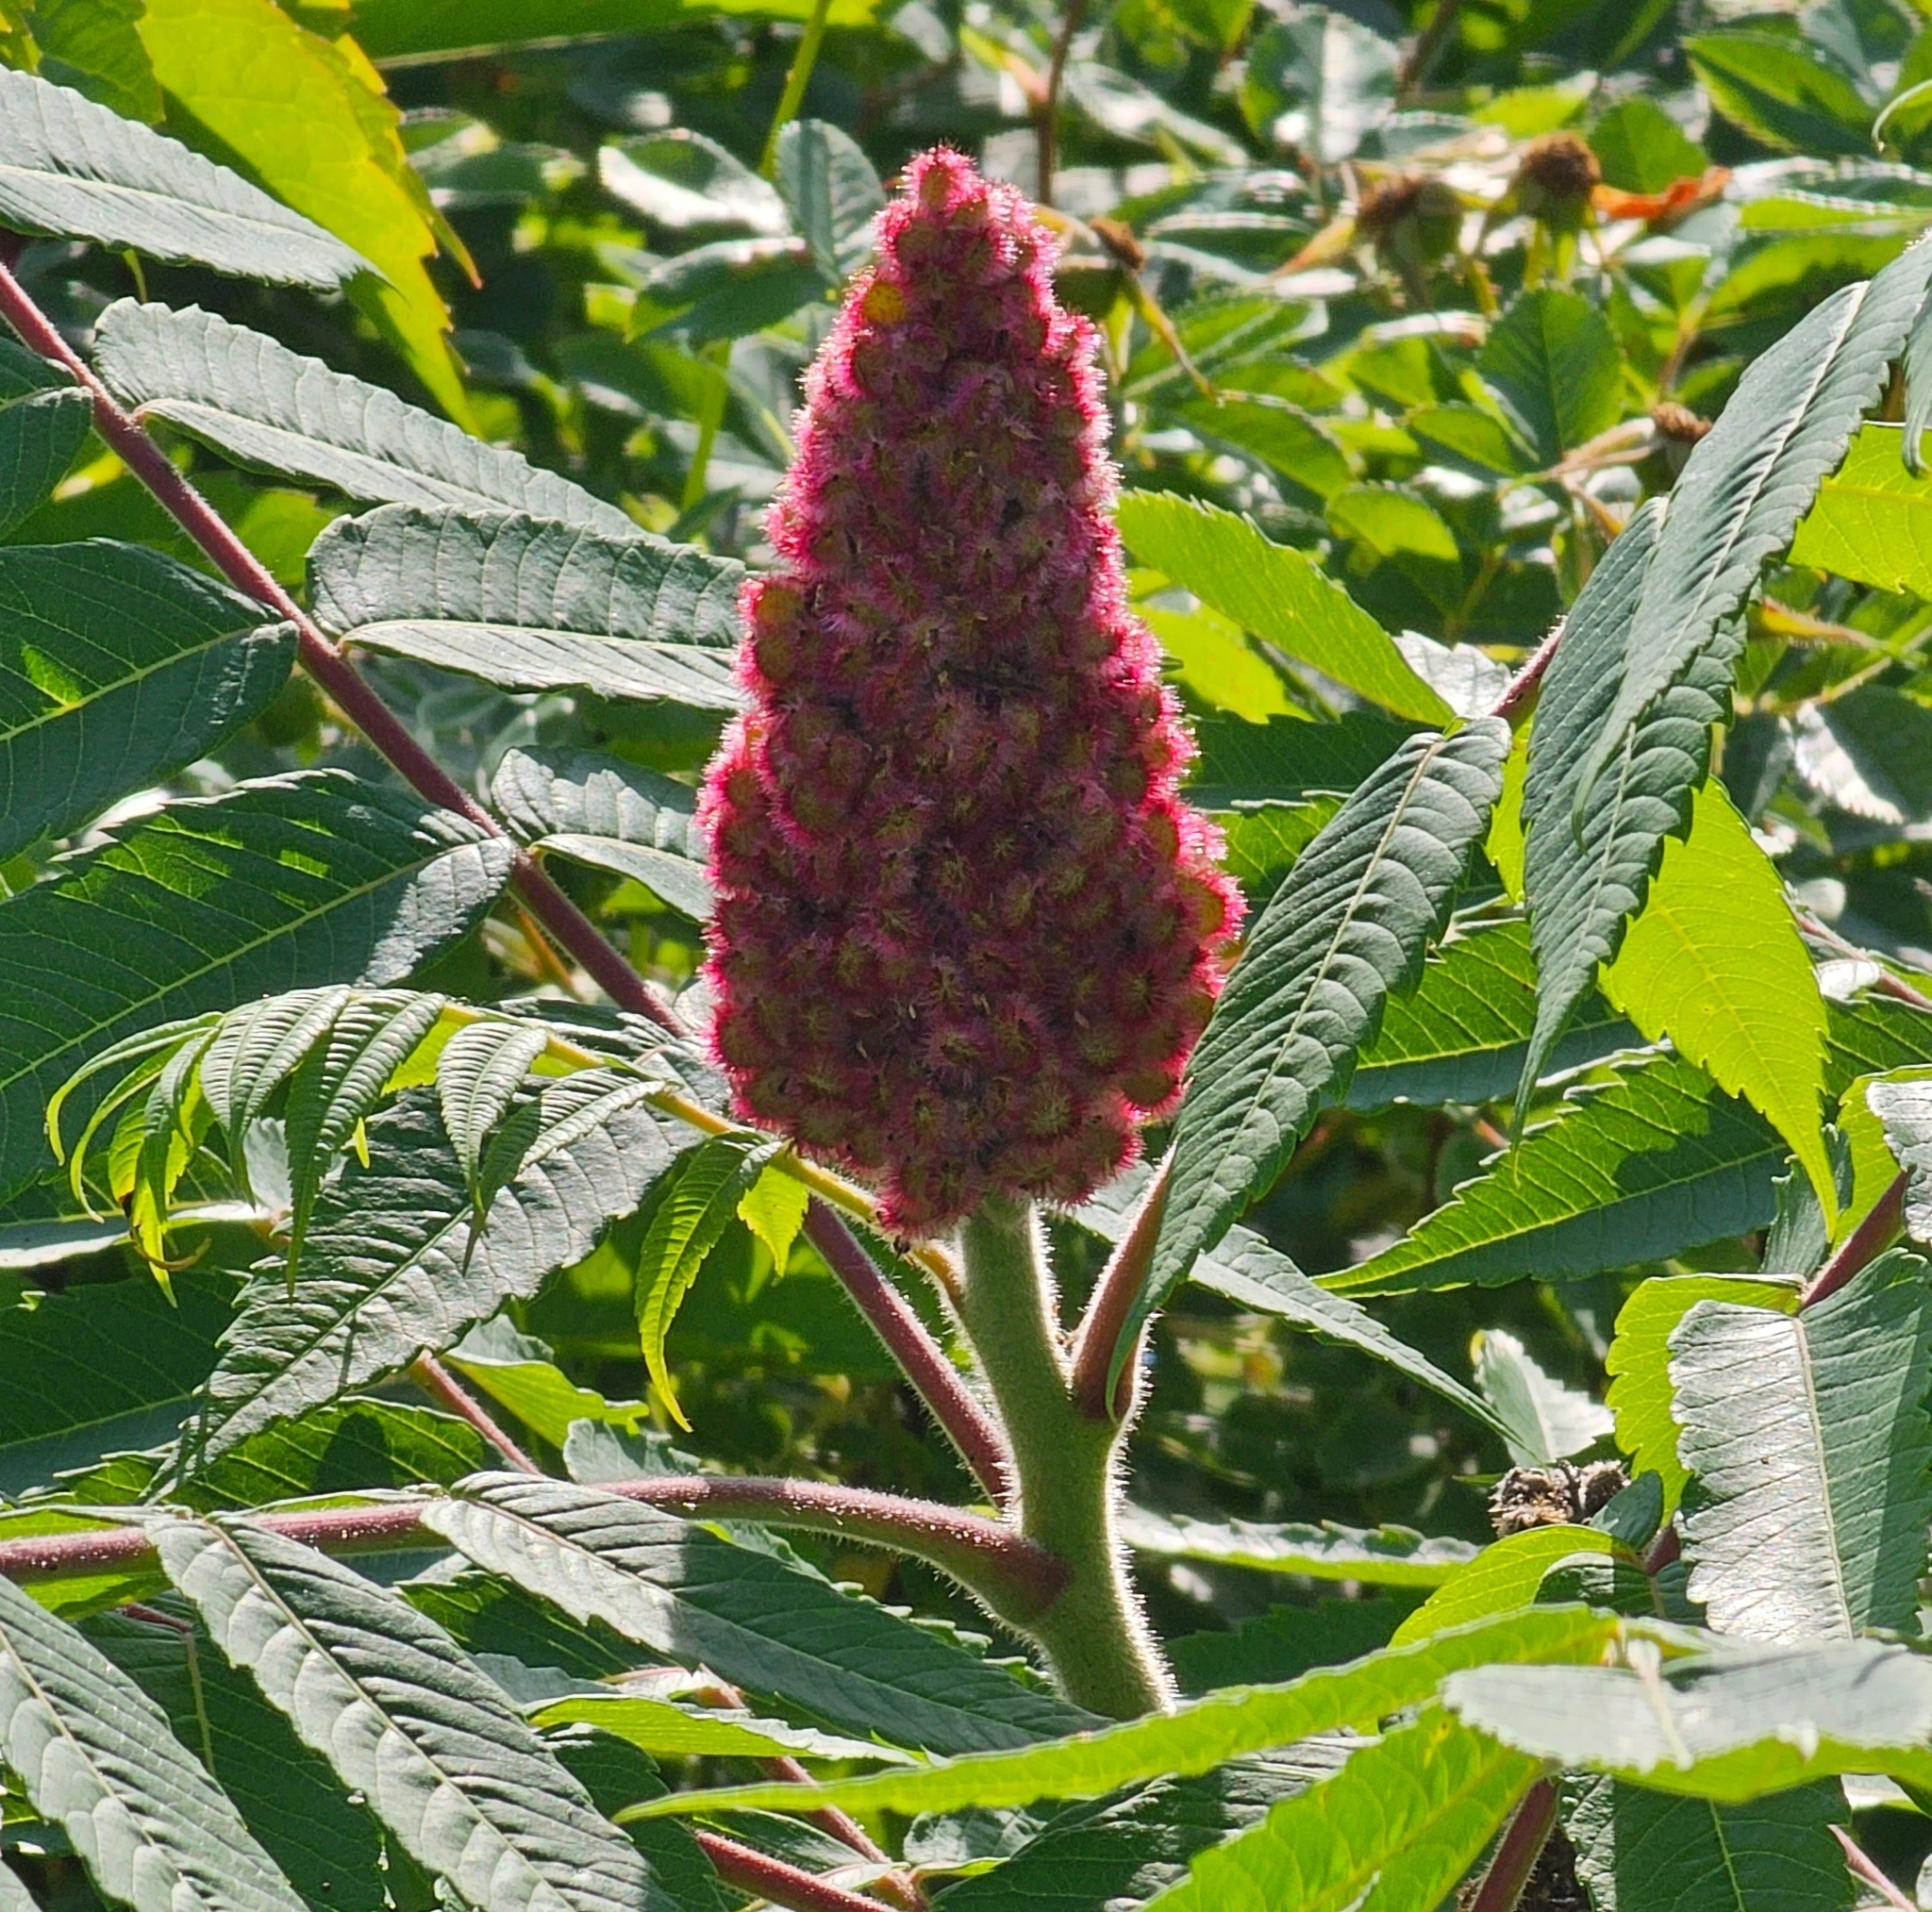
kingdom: Plantae
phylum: Tracheophyta
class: Magnoliopsida
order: Sapindales
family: Anacardiaceae
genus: Rhus
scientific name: Rhus typhina
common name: Staghorn sumac
